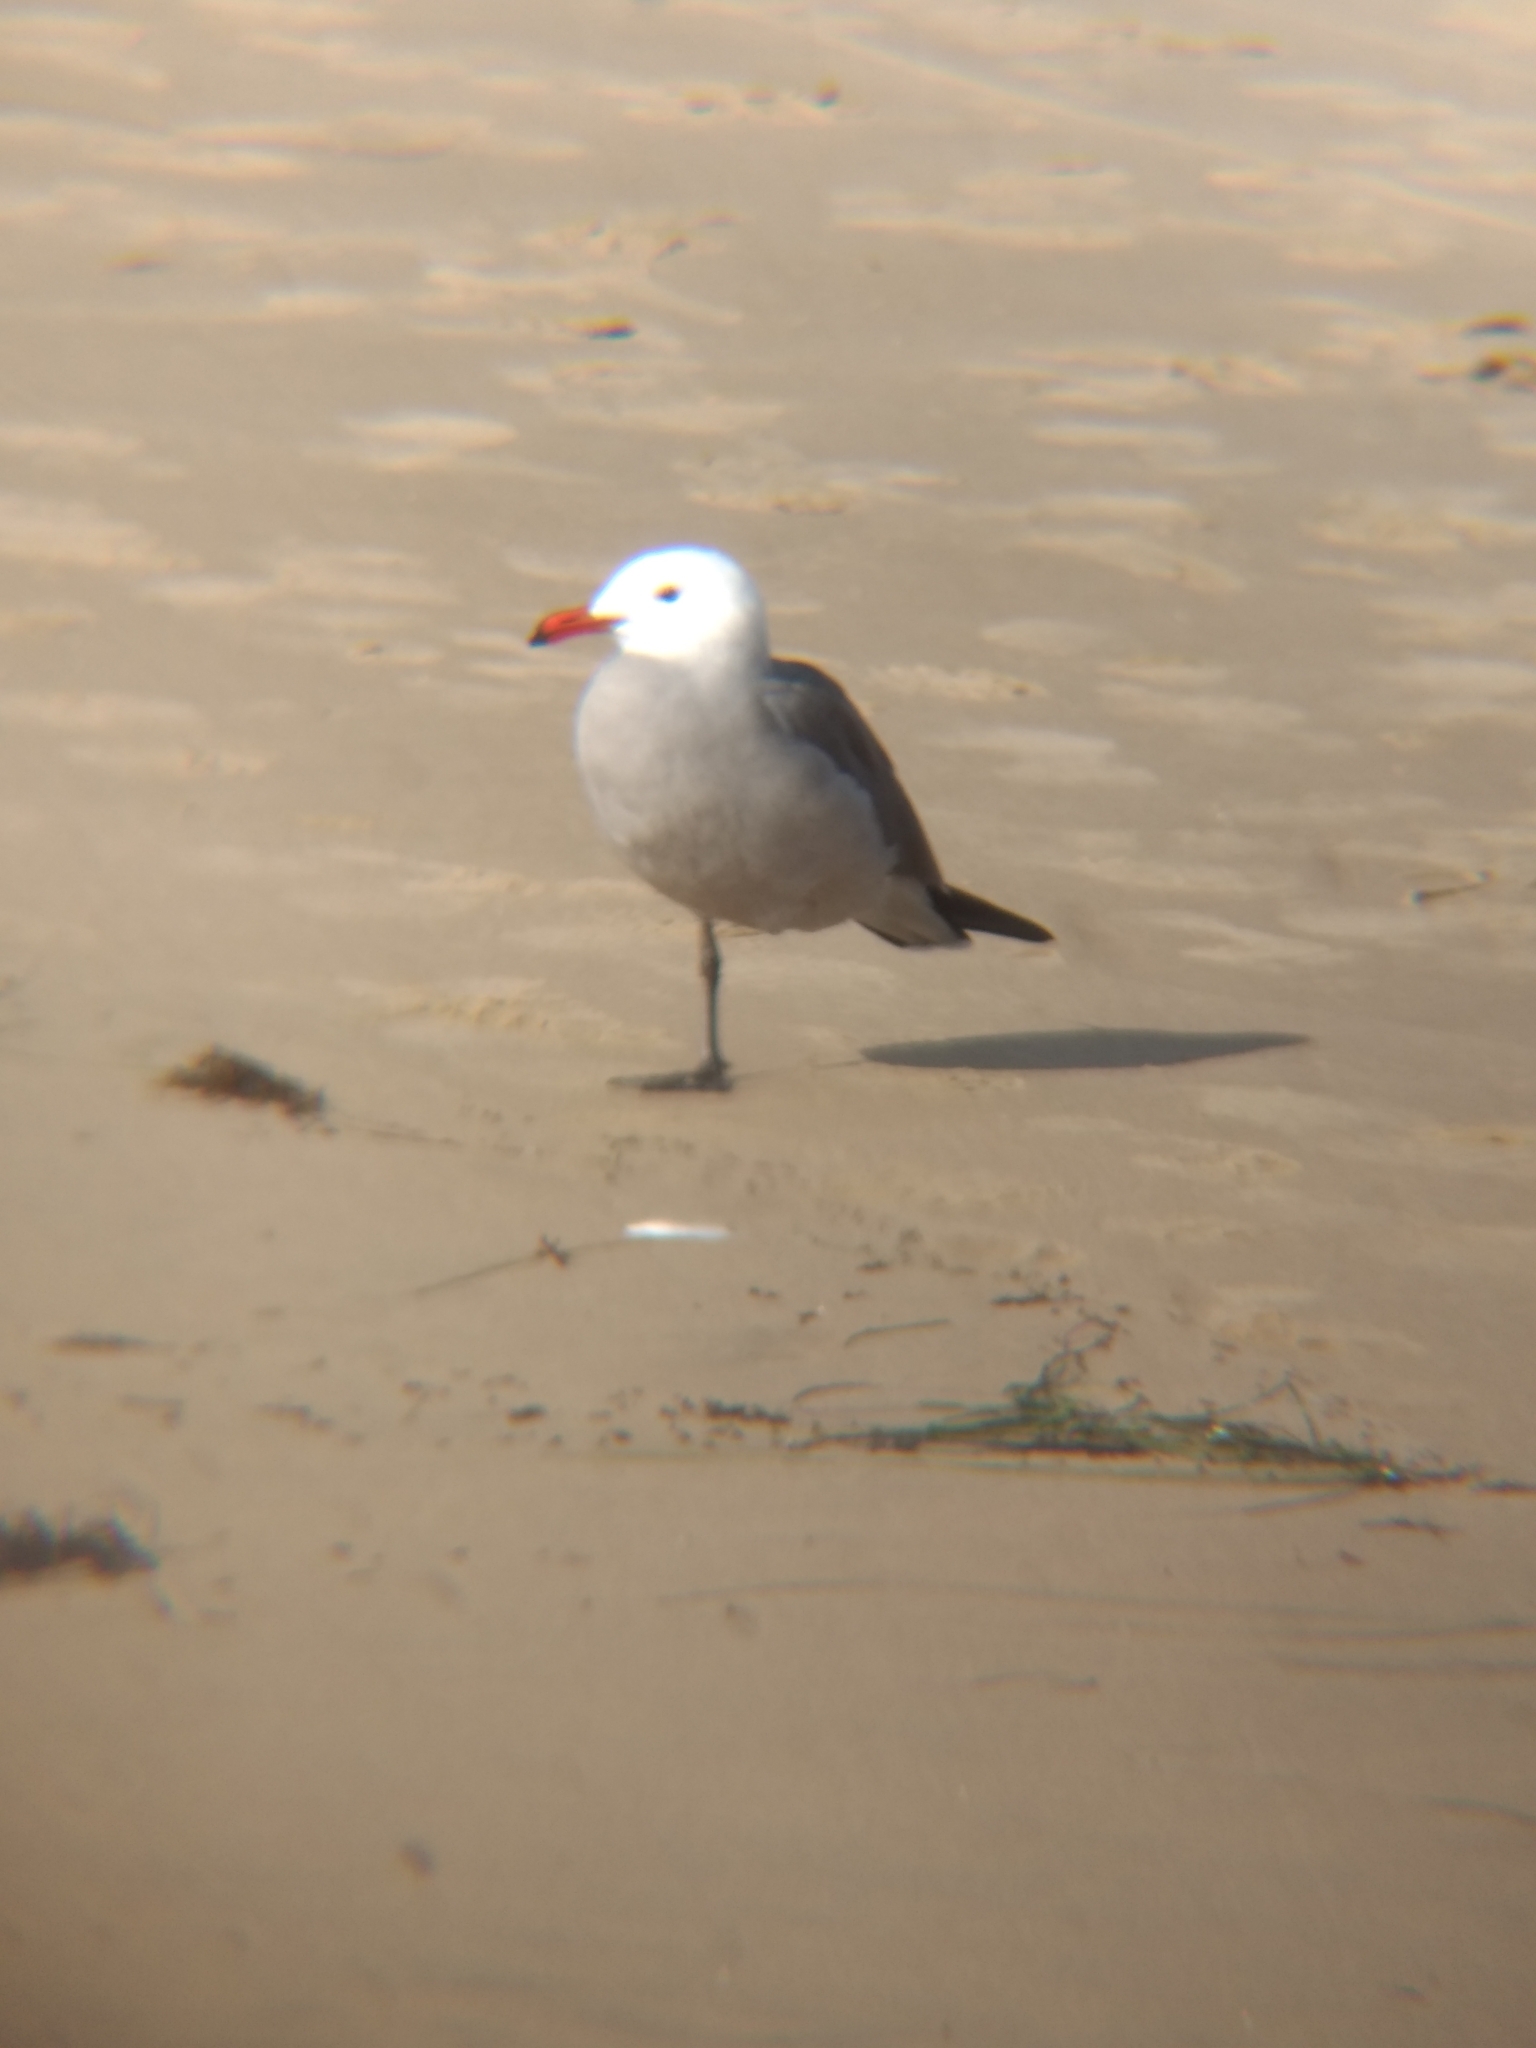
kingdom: Animalia
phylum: Chordata
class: Aves
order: Charadriiformes
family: Laridae
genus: Larus
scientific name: Larus heermanni
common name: Heermann's gull
